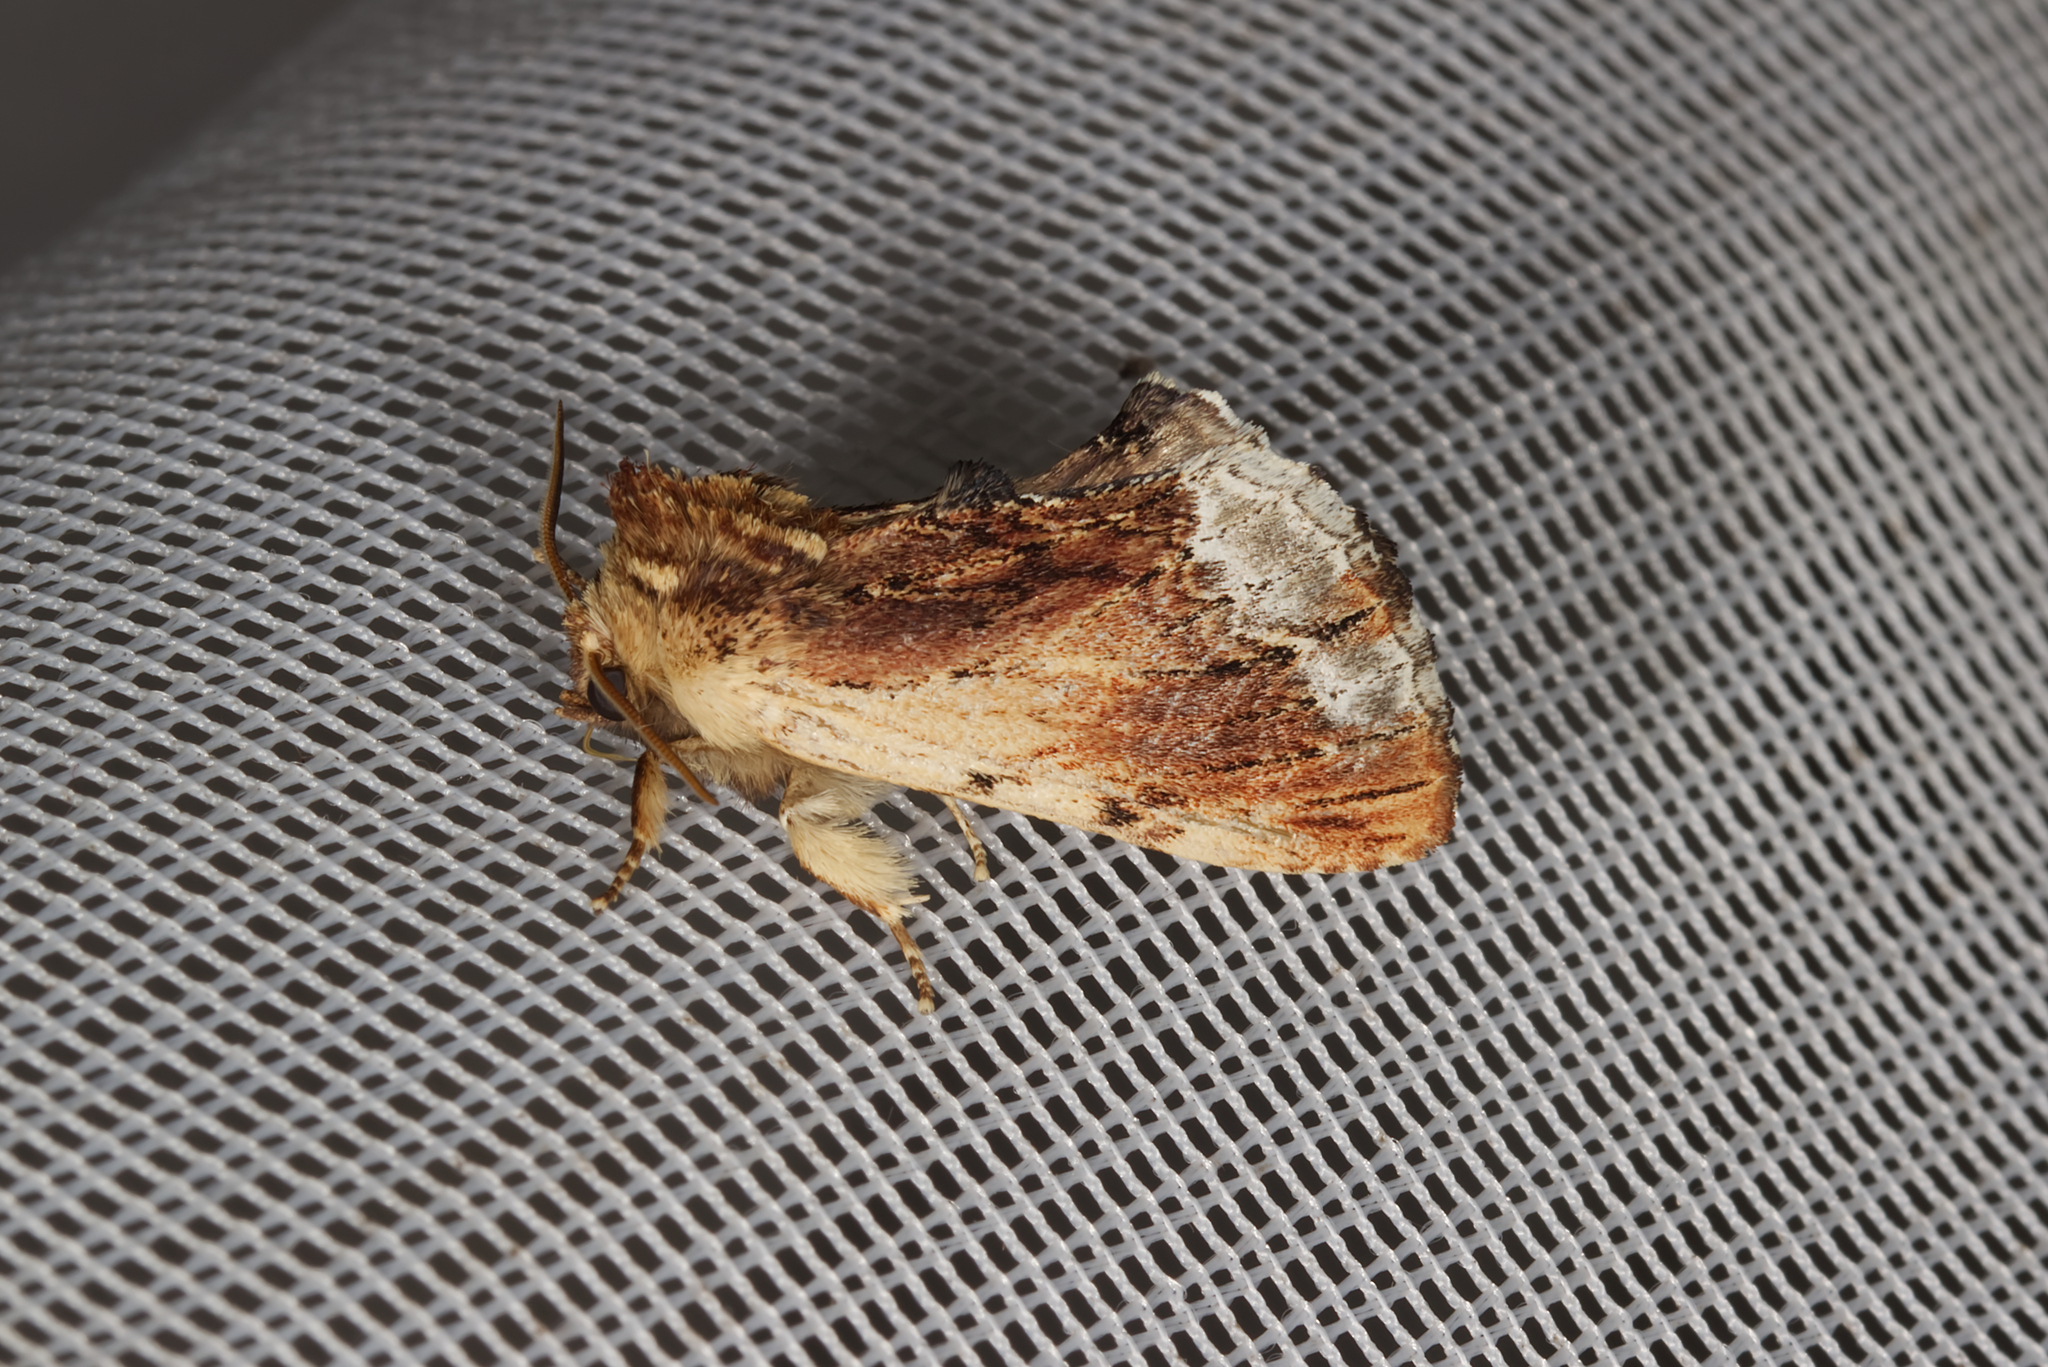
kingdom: Animalia
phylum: Arthropoda
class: Insecta
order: Lepidoptera
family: Notodontidae
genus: Ptilodon
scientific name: Ptilodon cucullina
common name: Maple prominent
